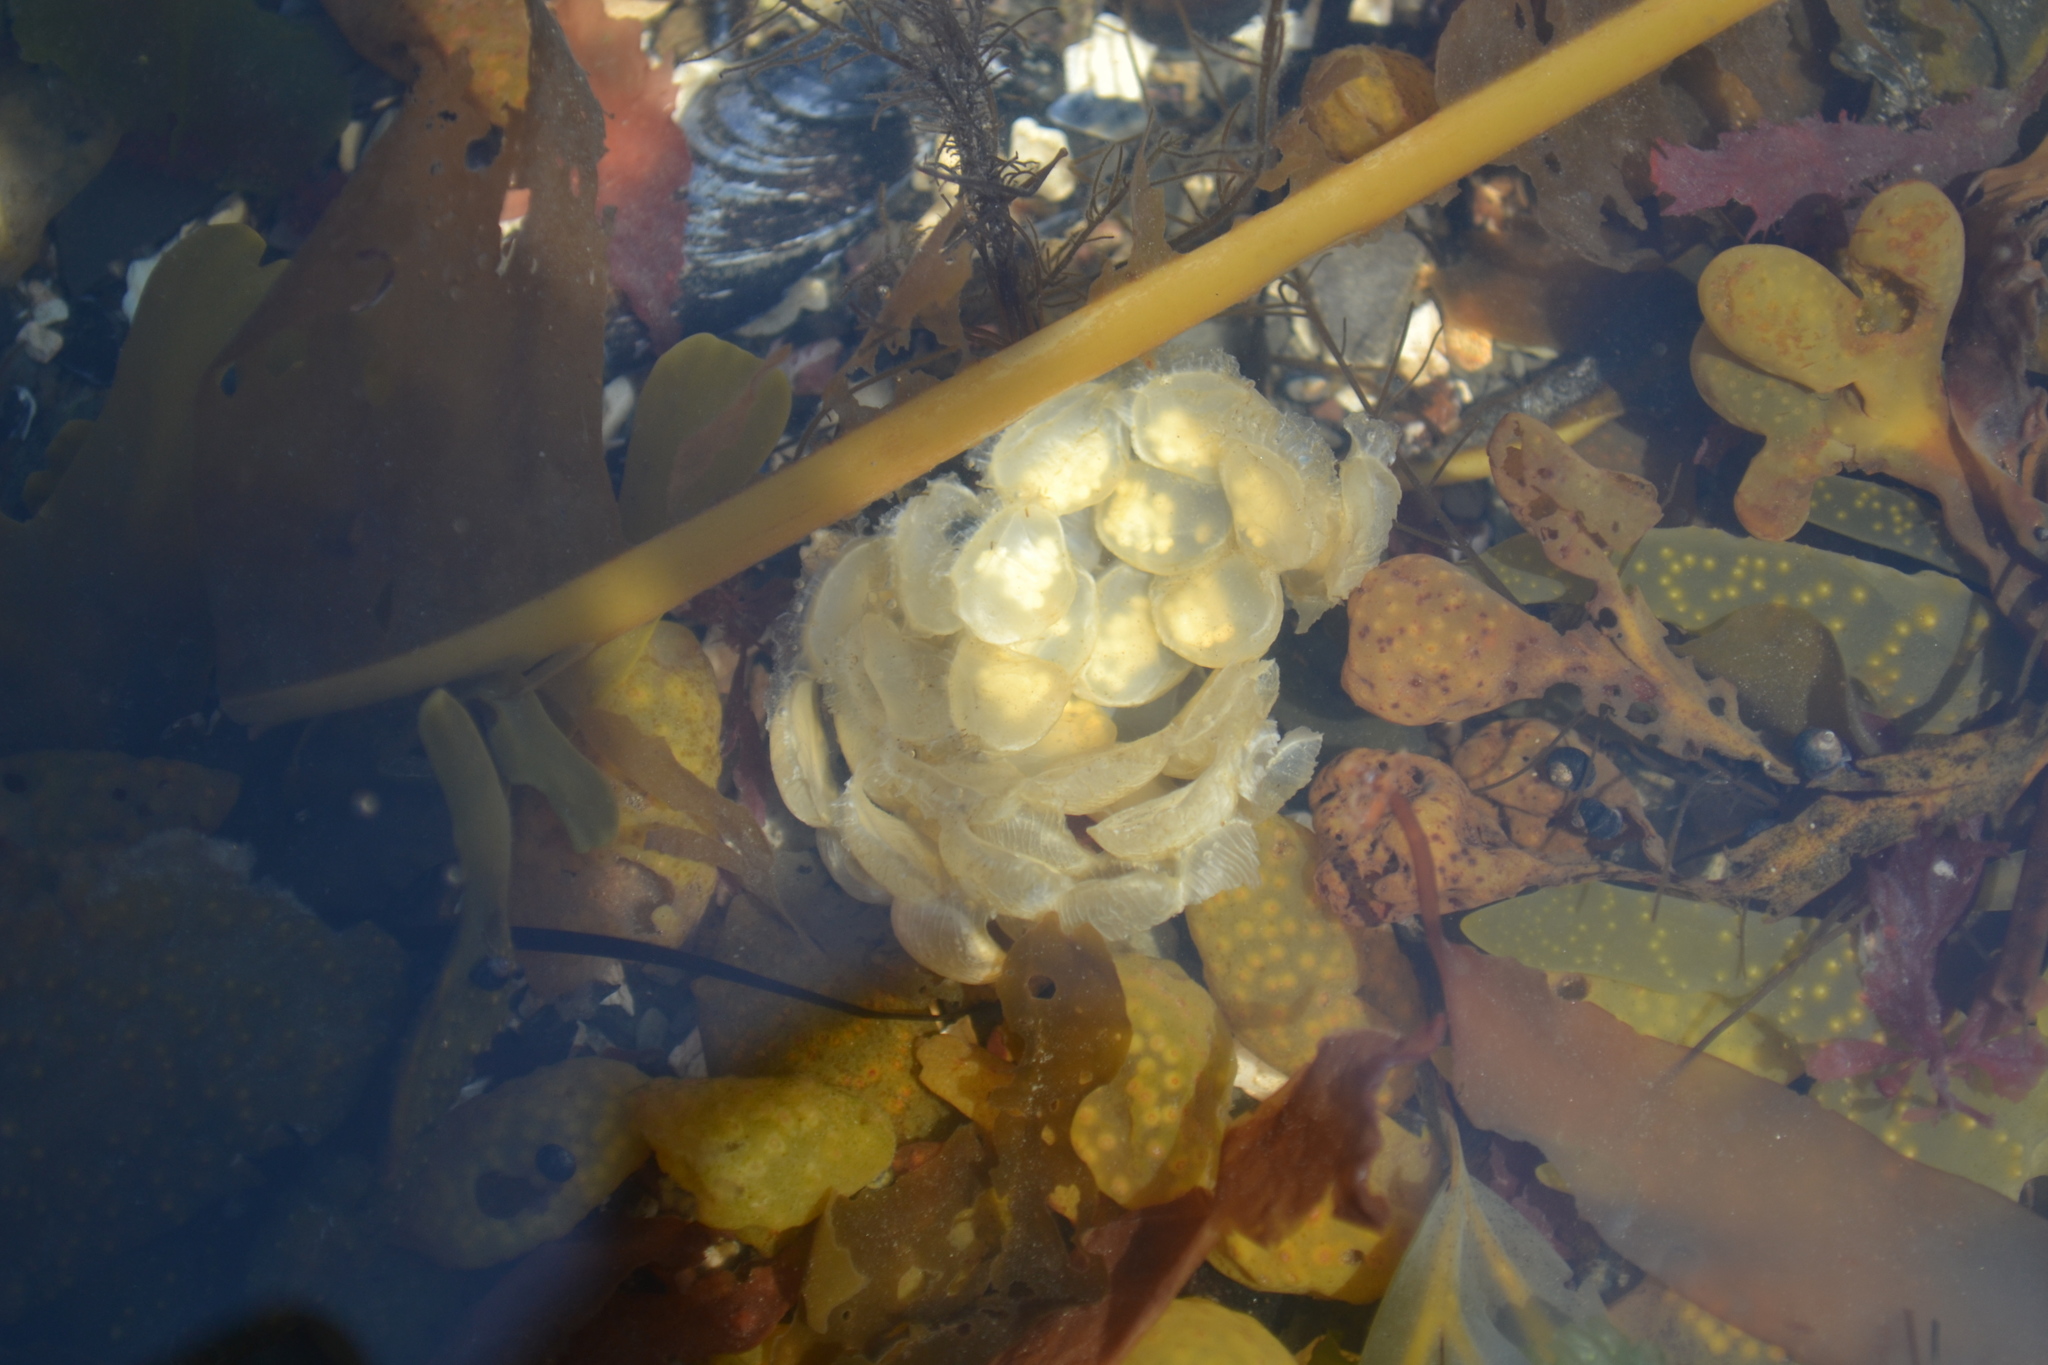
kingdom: Animalia
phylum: Mollusca
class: Gastropoda
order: Neogastropoda
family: Buccinidae
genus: Buccinum
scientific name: Buccinum undatum
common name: Common whelk
